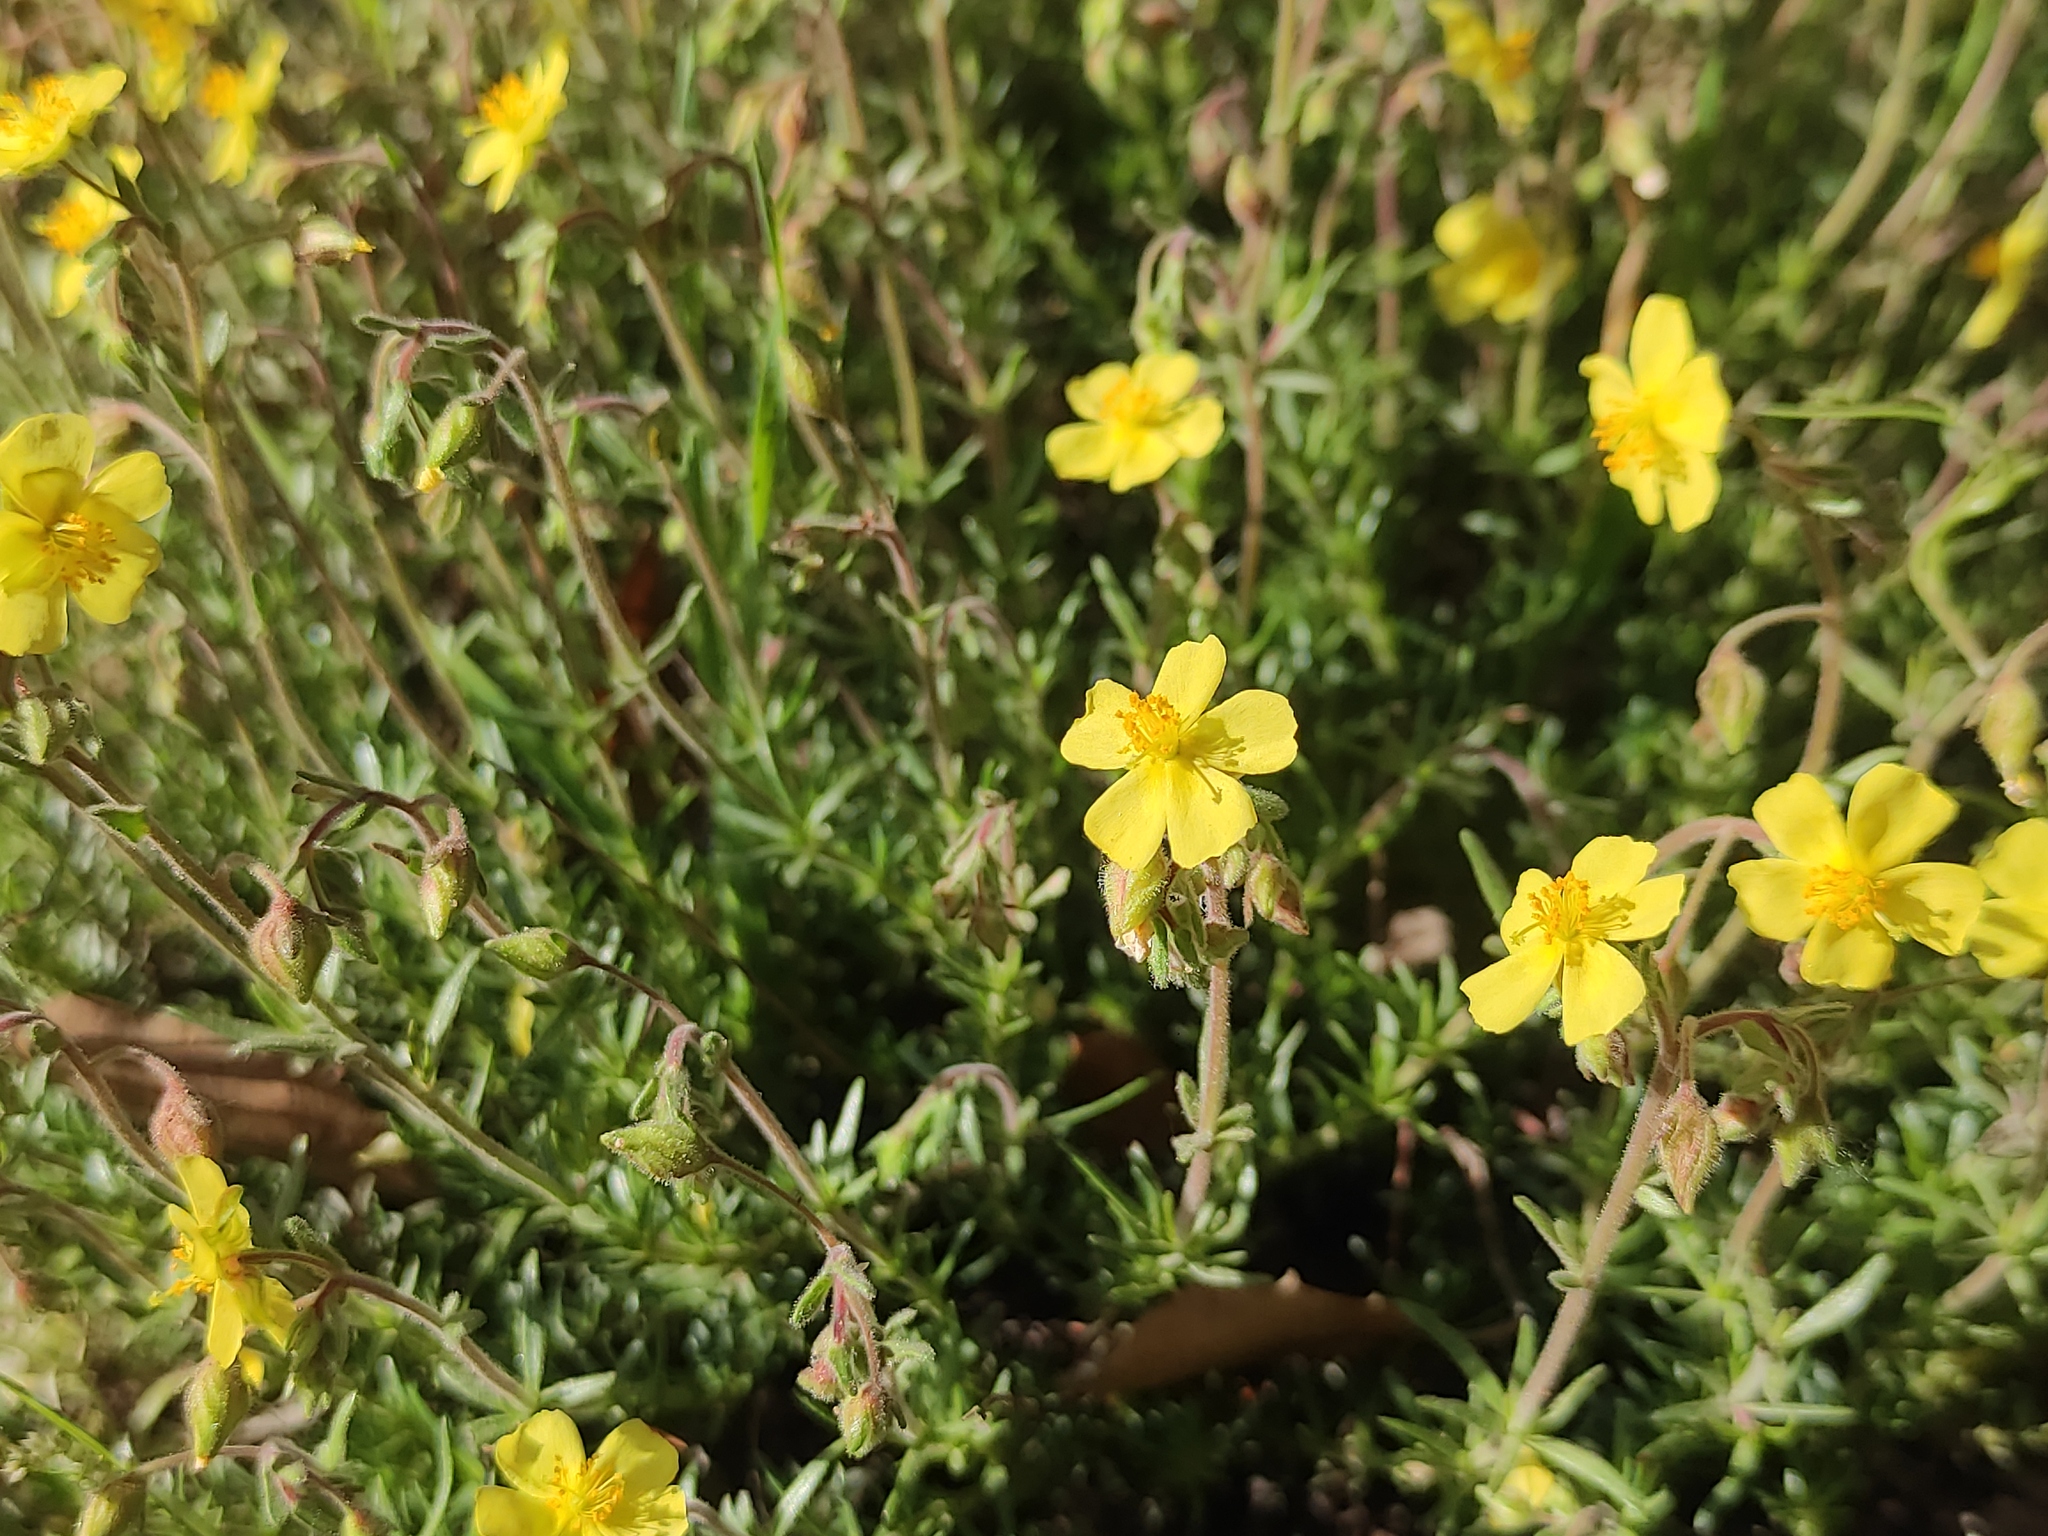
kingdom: Plantae
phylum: Tracheophyta
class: Magnoliopsida
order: Malvales
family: Cistaceae
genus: Fumana
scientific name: Fumana juniperina
